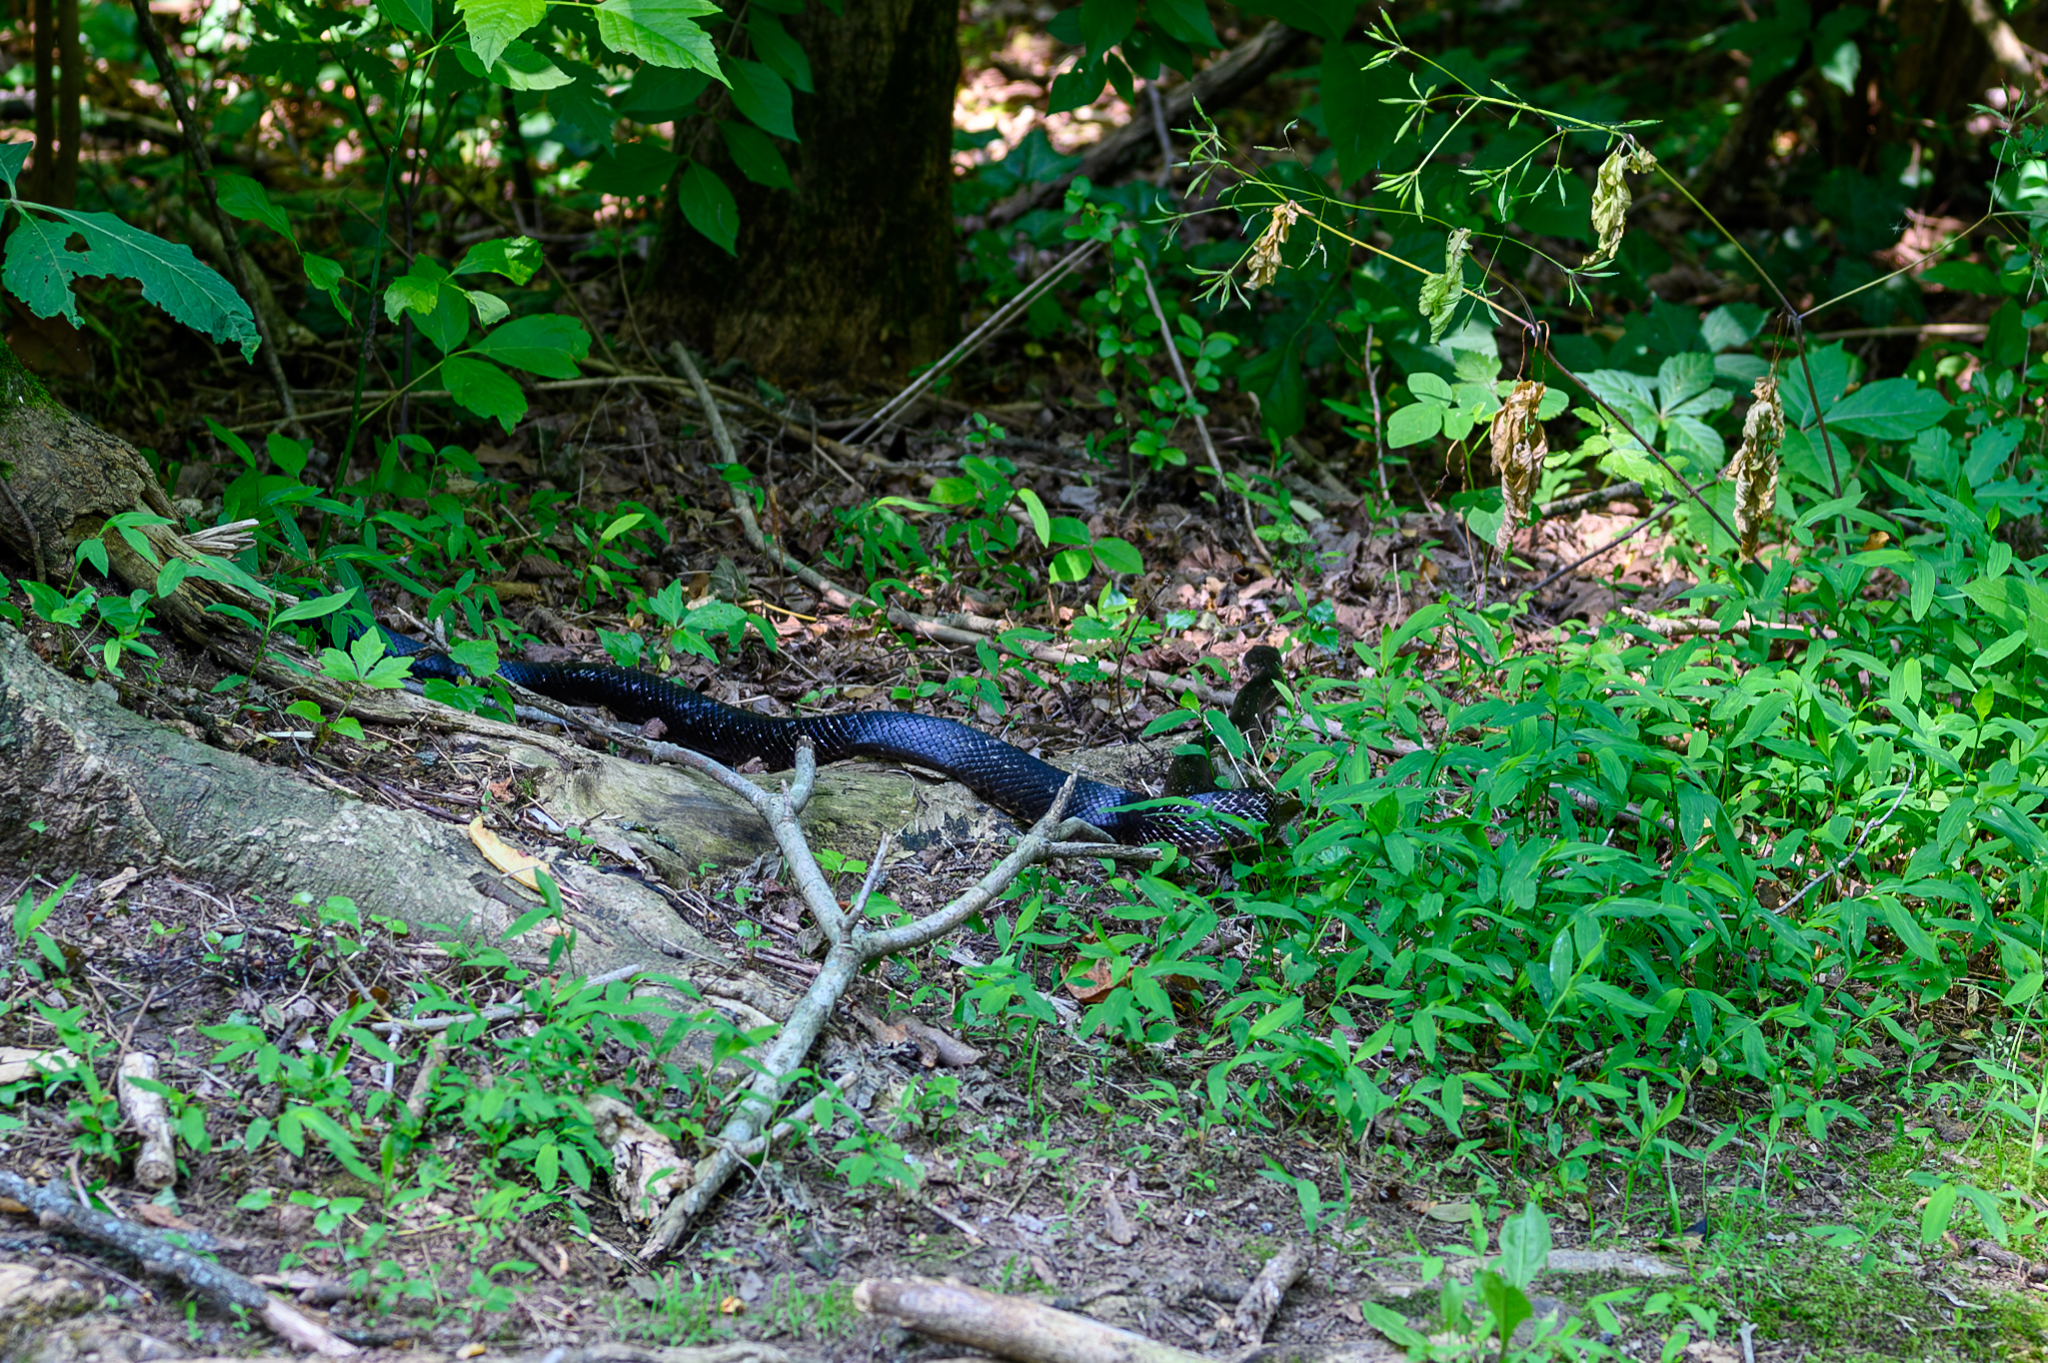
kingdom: Animalia
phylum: Chordata
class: Squamata
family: Colubridae
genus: Pantherophis
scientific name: Pantherophis spiloides
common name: Gray rat snake
